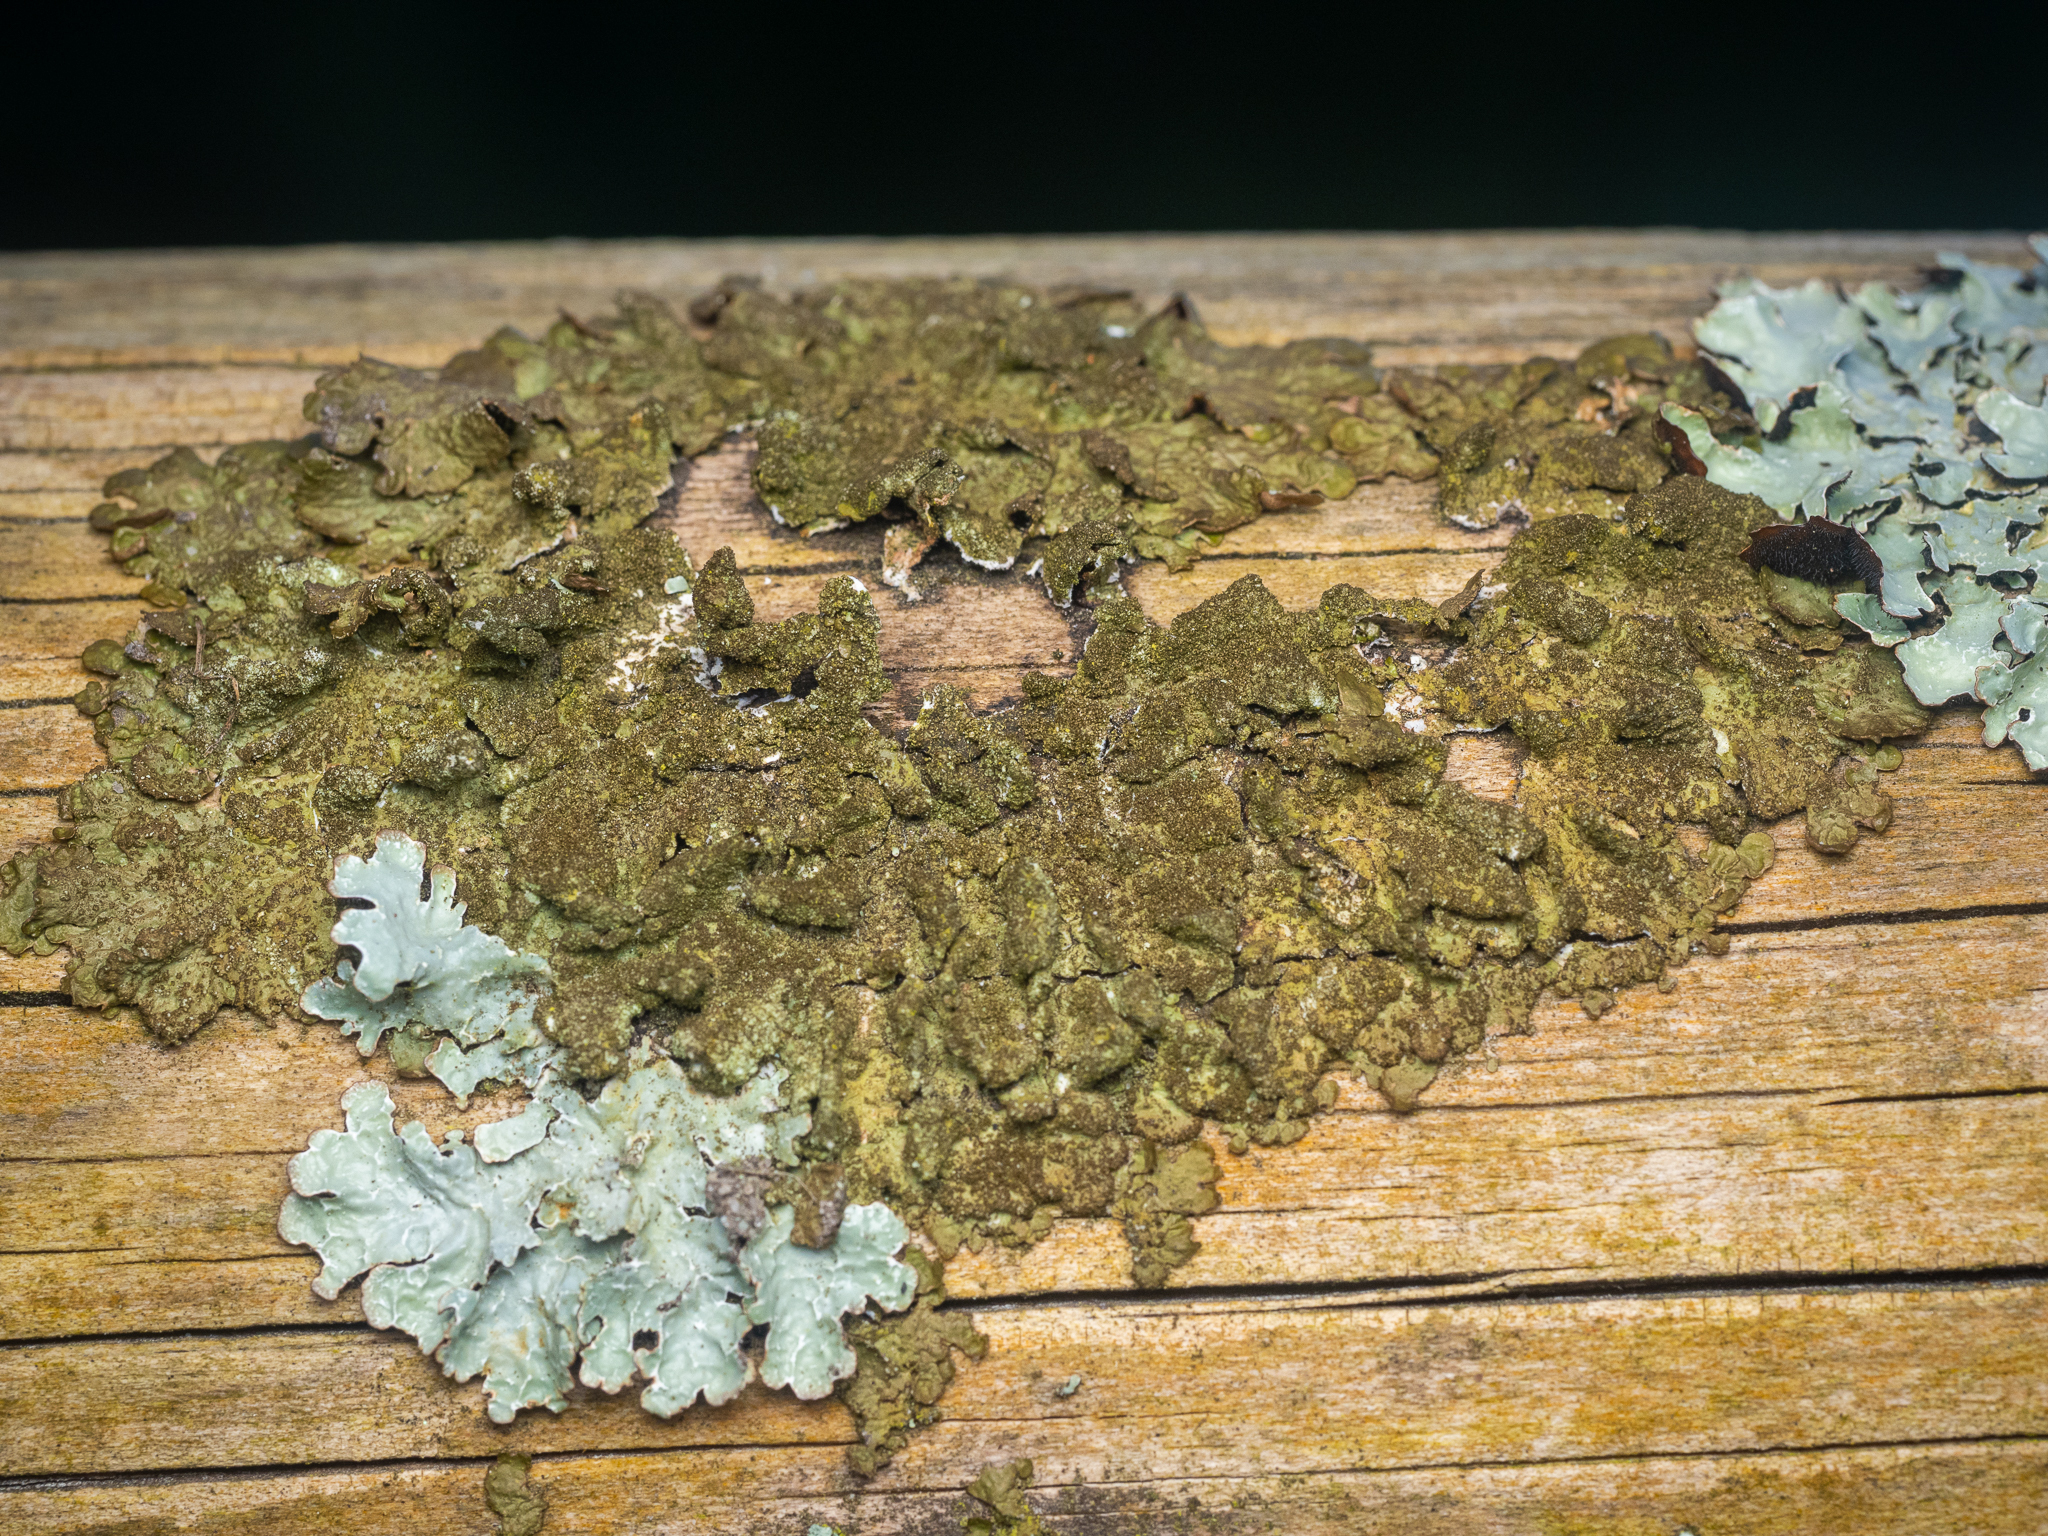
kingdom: Fungi
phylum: Ascomycota
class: Lecanoromycetes
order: Lecanorales
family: Parmeliaceae
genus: Melanelixia
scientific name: Melanelixia subaurifera
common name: Abraded camouflage lichen
